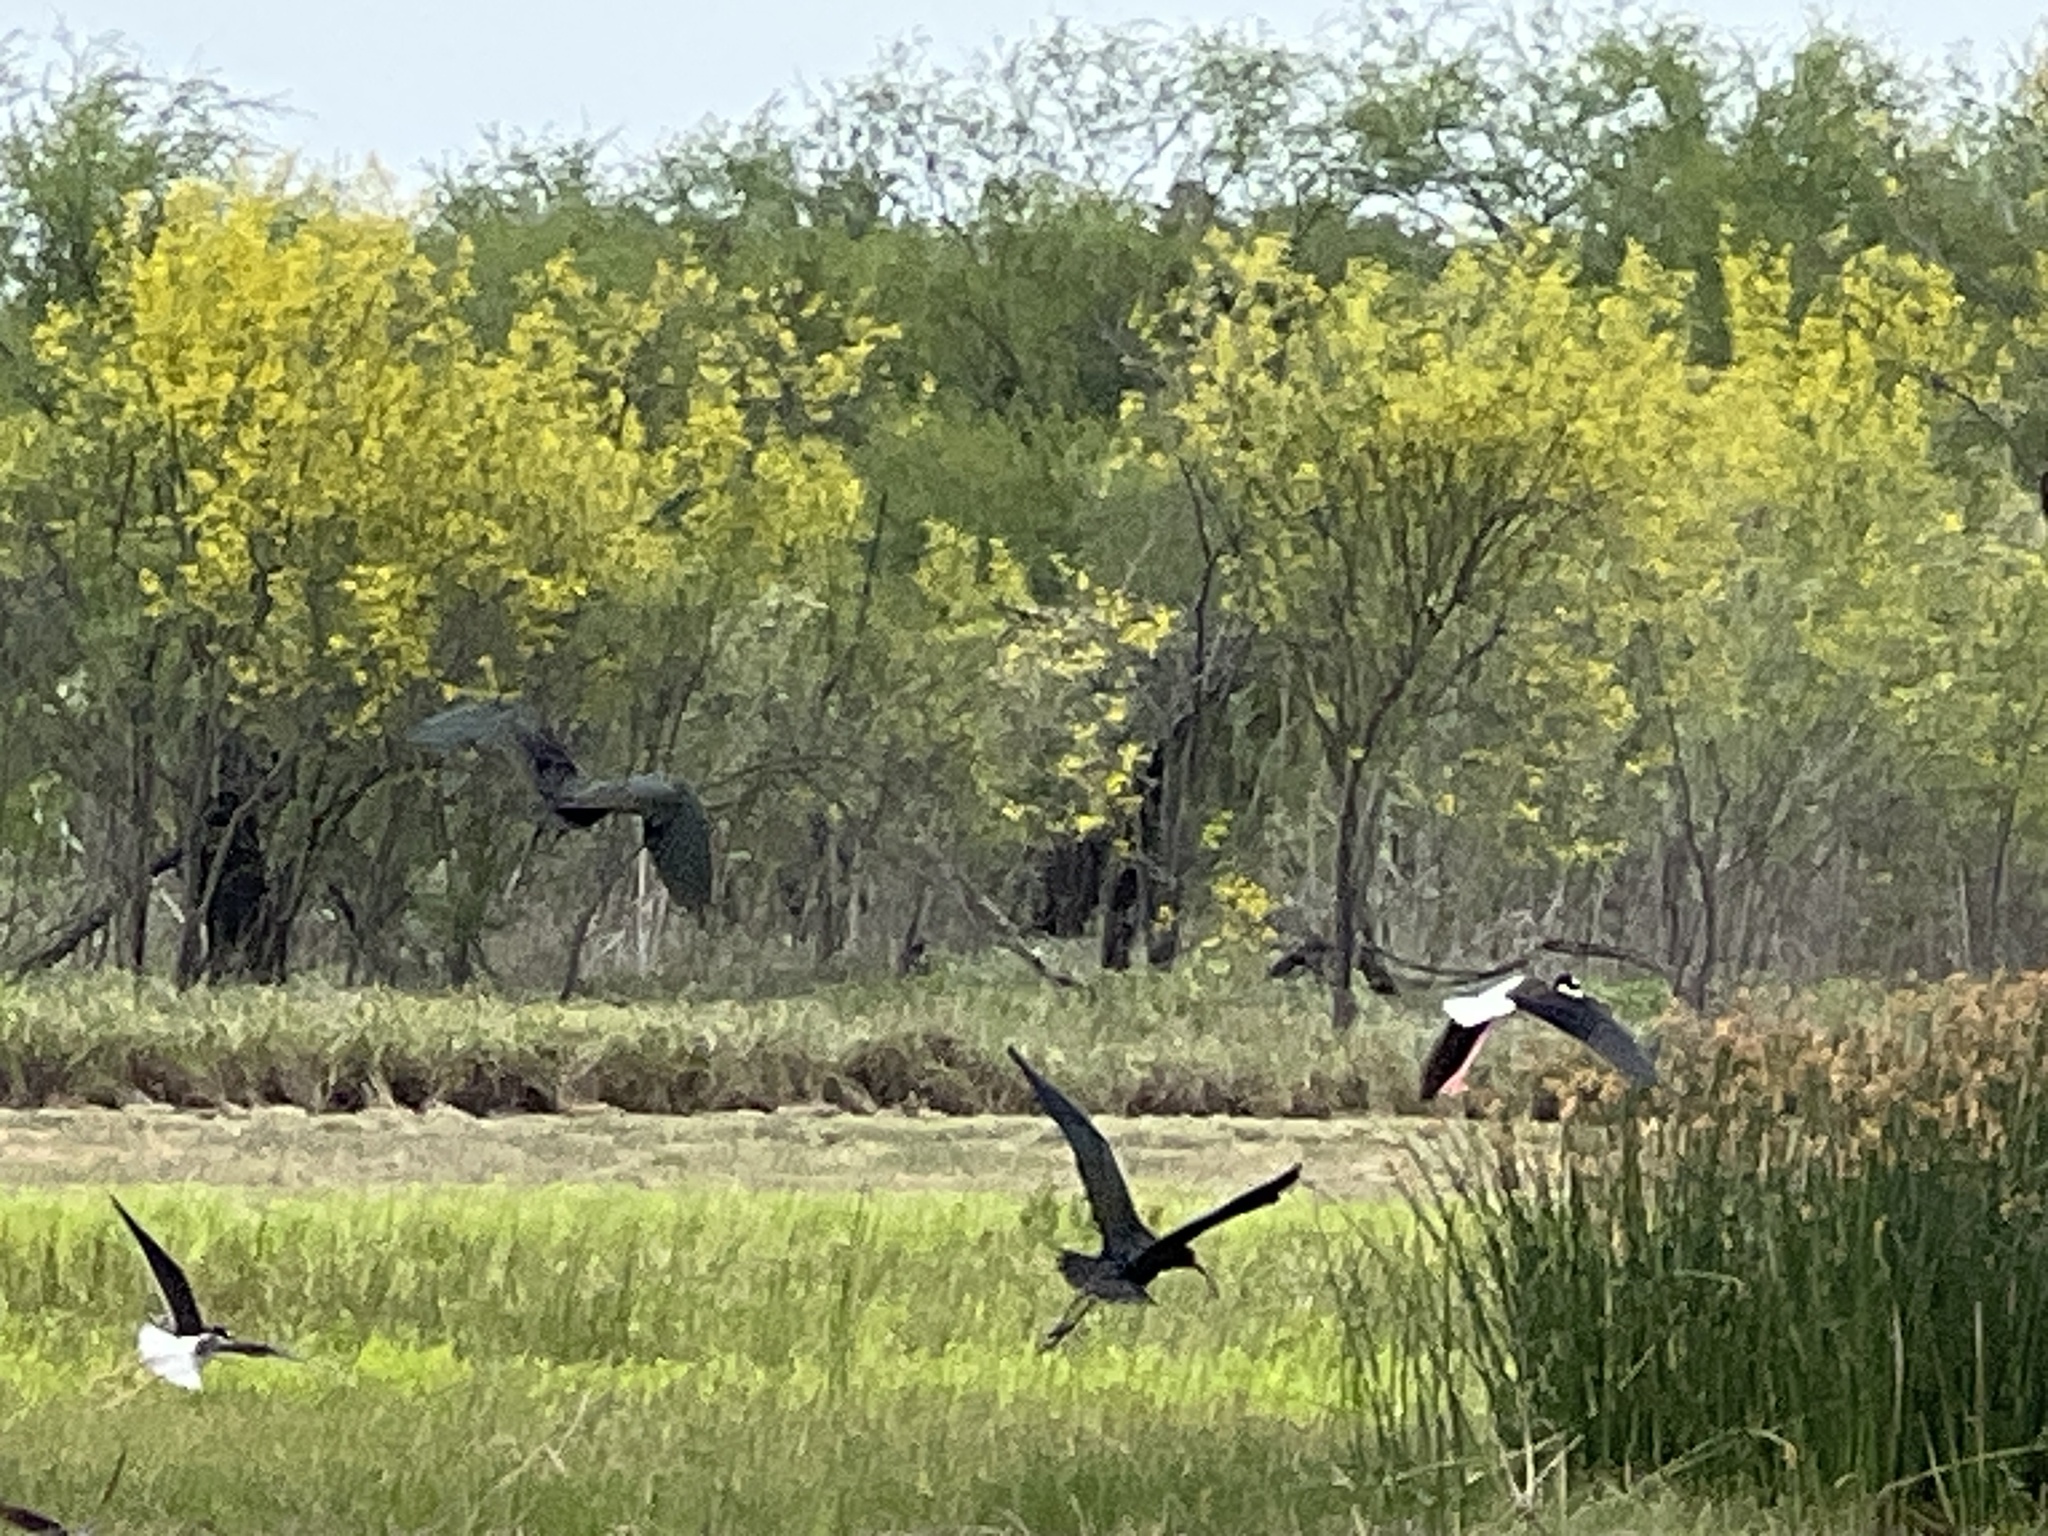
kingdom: Animalia
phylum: Chordata
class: Aves
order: Charadriiformes
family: Recurvirostridae
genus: Himantopus
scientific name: Himantopus mexicanus
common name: Black-necked stilt
